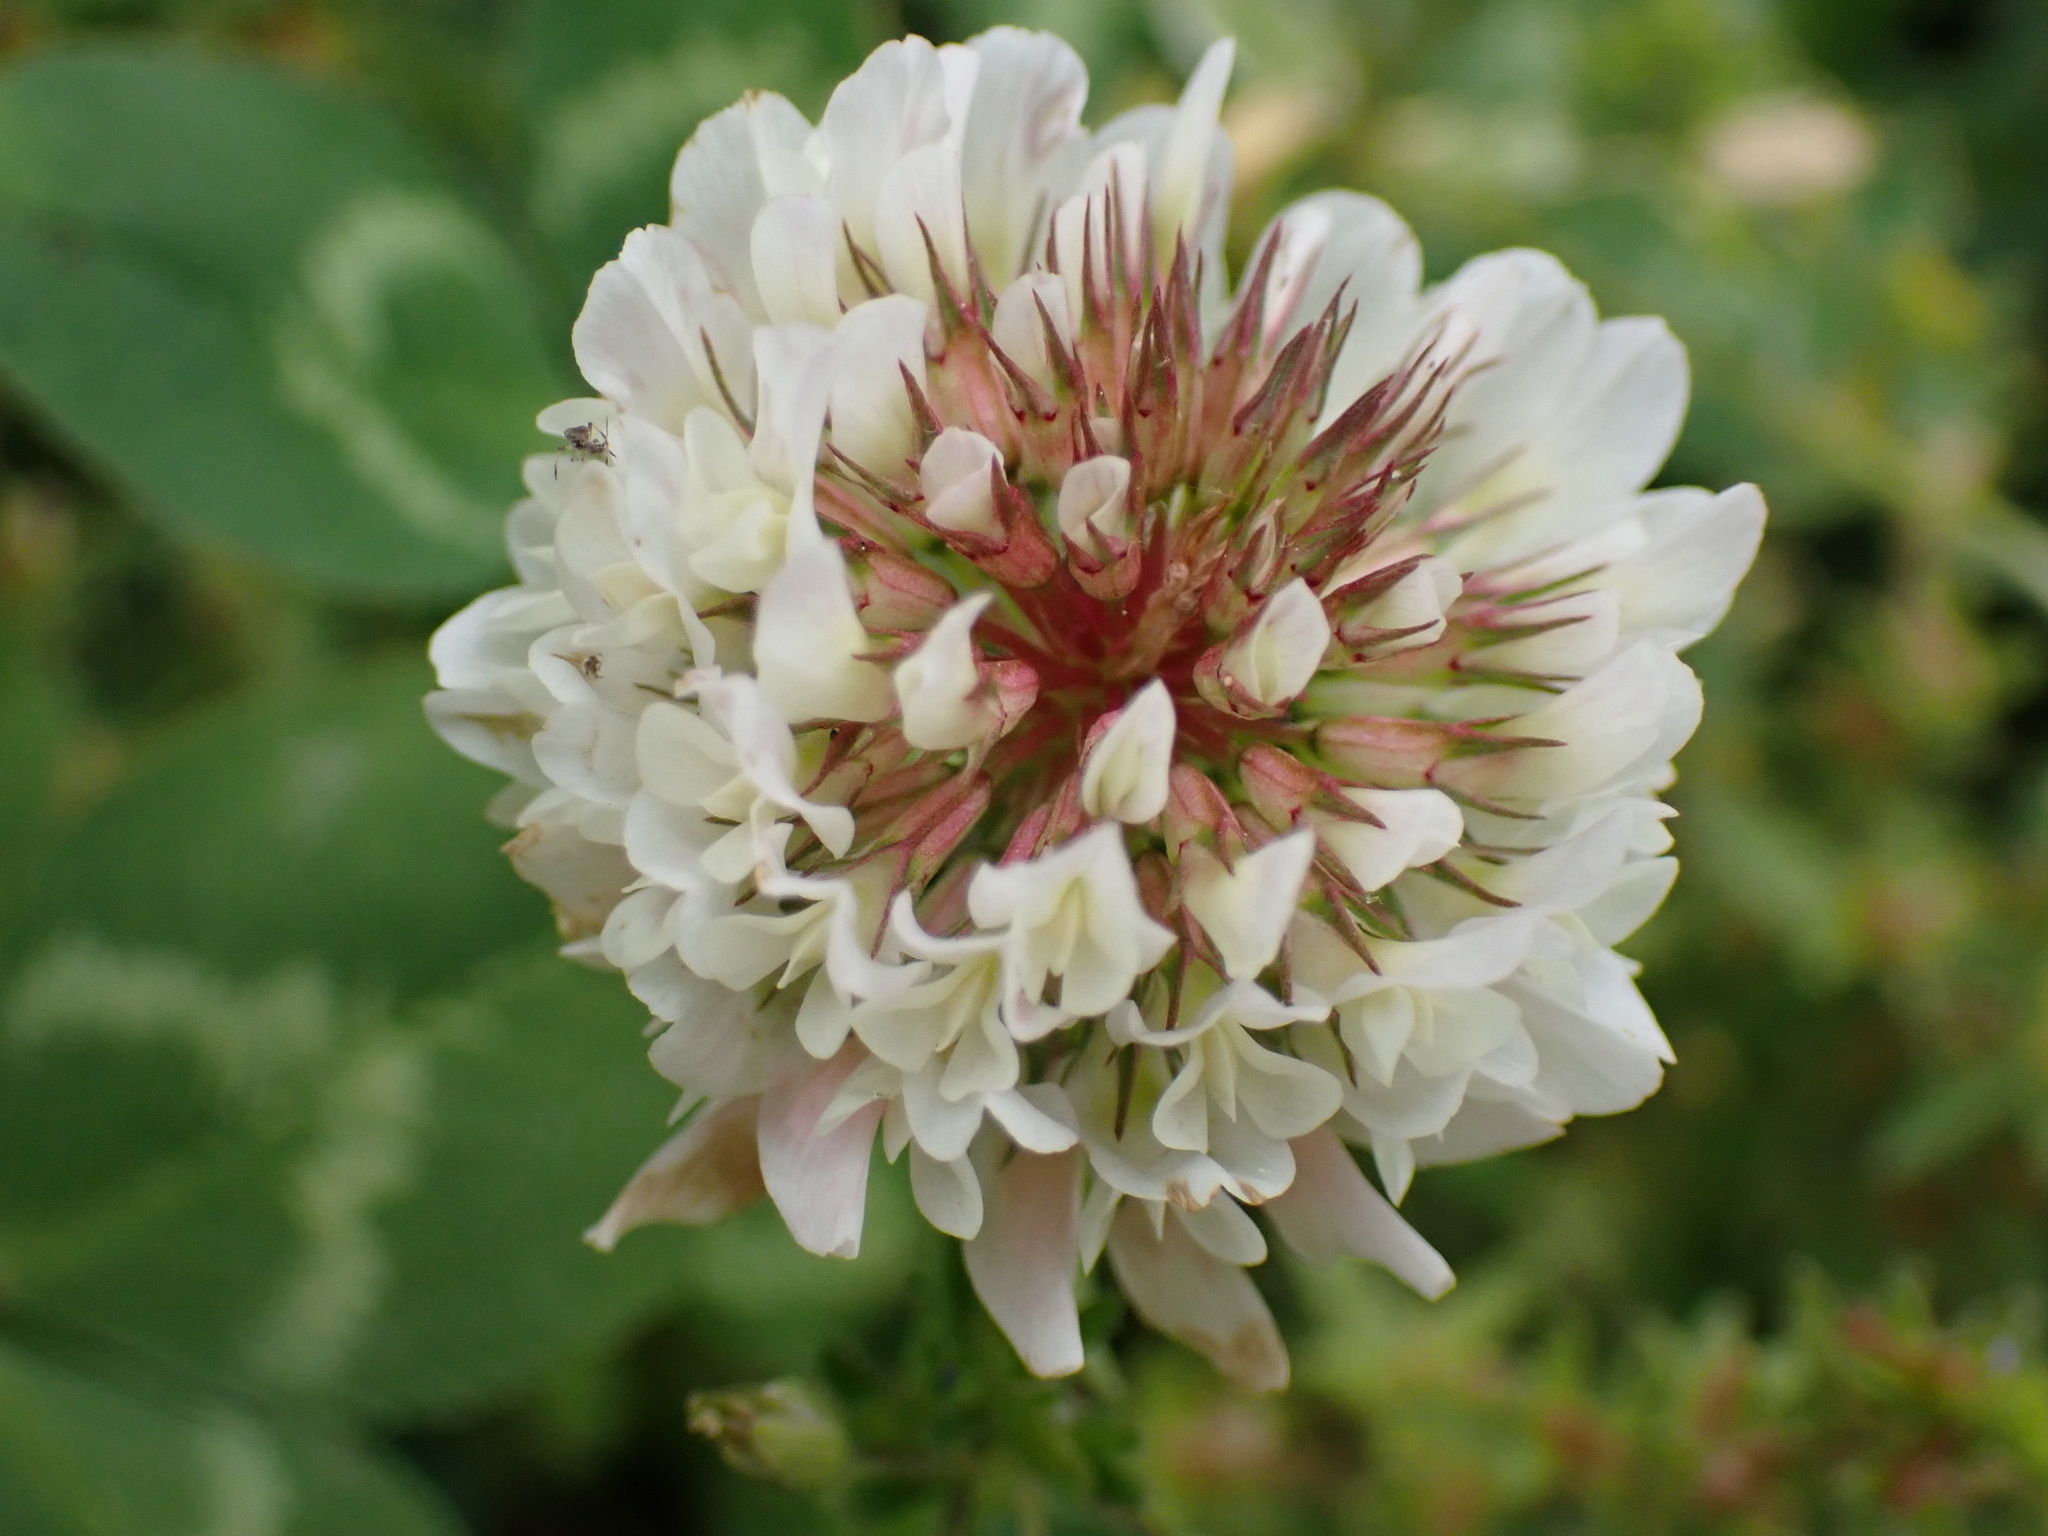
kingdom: Plantae
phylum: Tracheophyta
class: Magnoliopsida
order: Fabales
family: Fabaceae
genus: Trifolium
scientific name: Trifolium repens
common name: White clover
